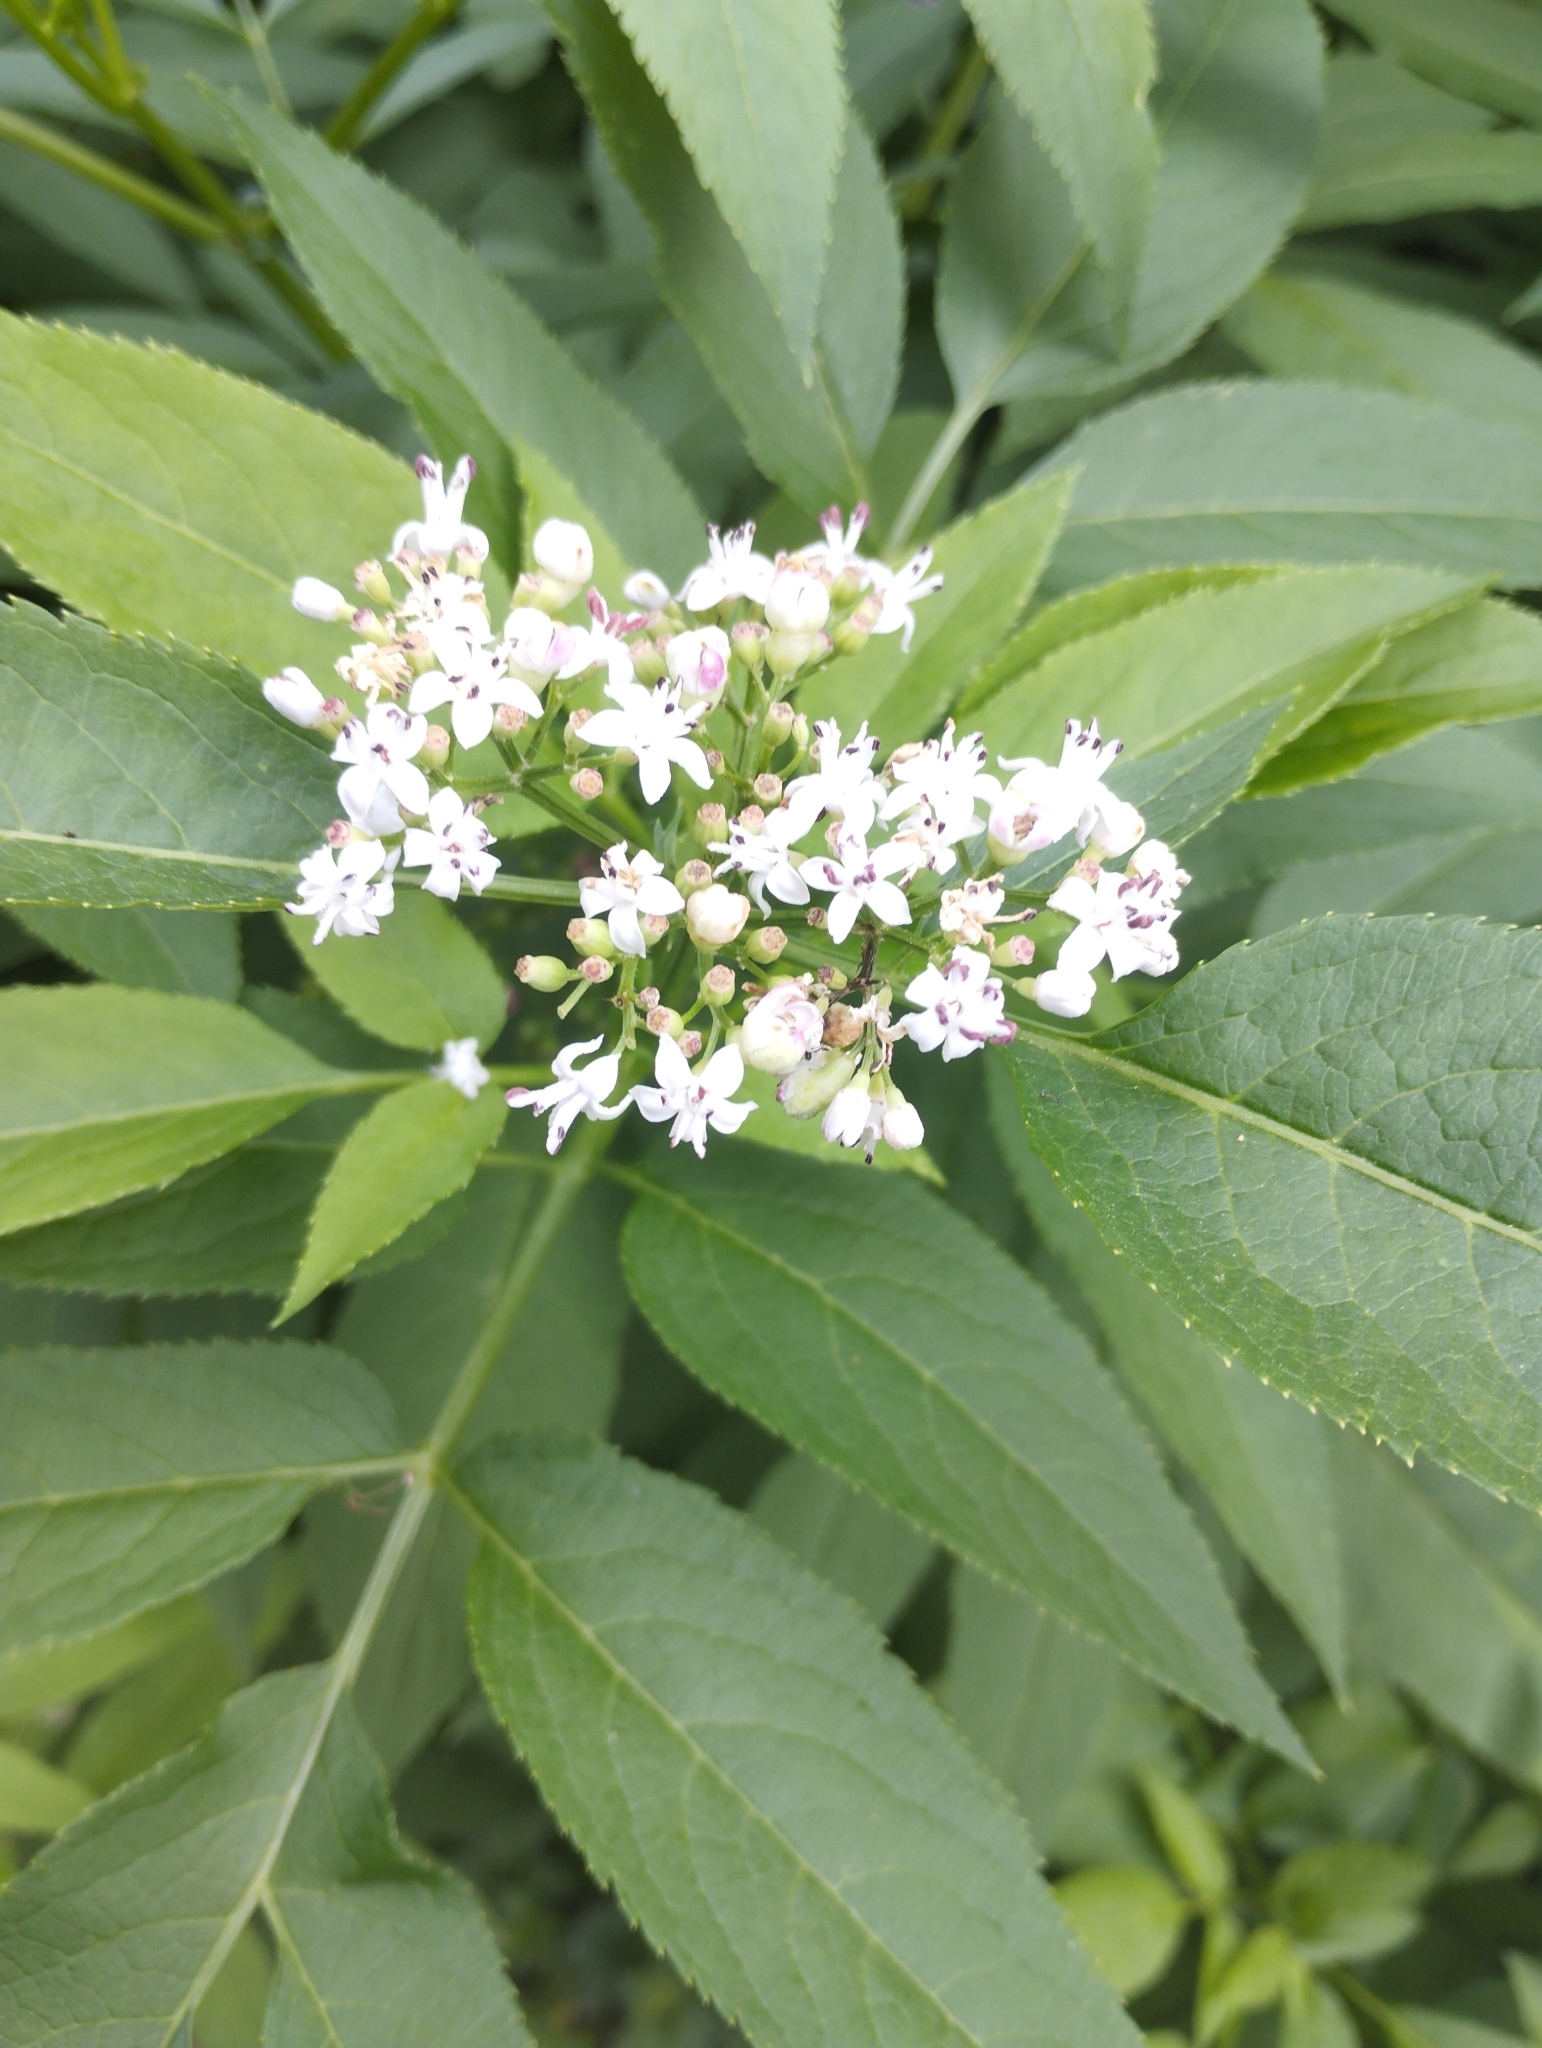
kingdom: Plantae
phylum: Tracheophyta
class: Magnoliopsida
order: Dipsacales
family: Viburnaceae
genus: Sambucus
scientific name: Sambucus ebulus
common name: Dwarf elder
